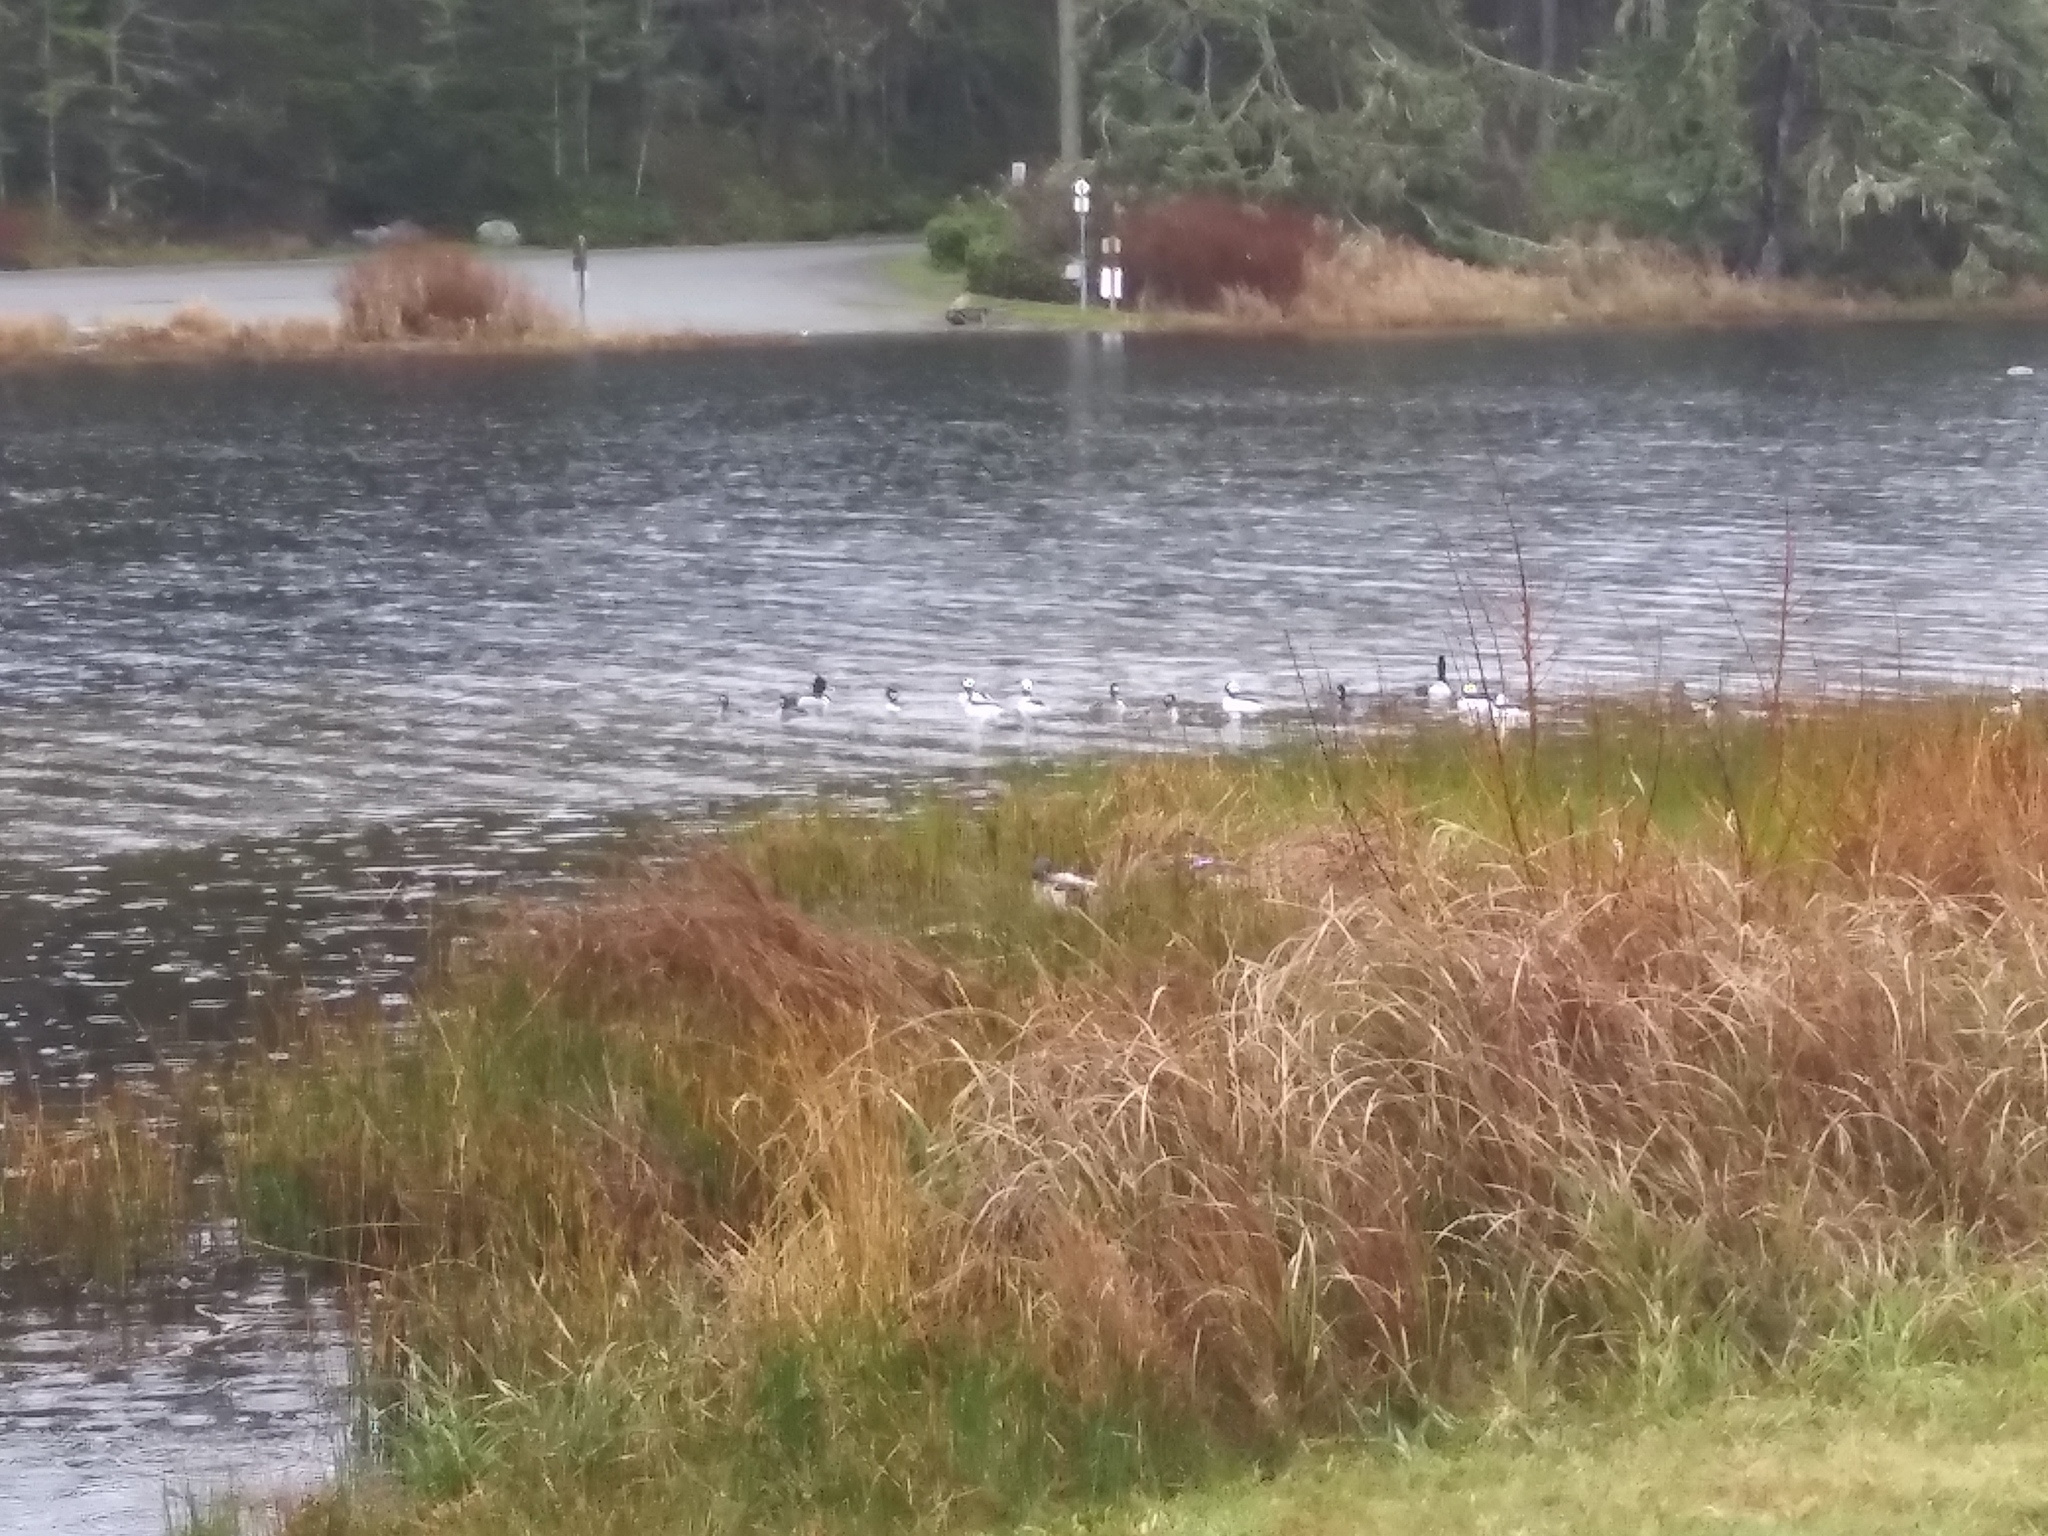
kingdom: Animalia
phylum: Chordata
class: Aves
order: Anseriformes
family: Anatidae
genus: Bucephala
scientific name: Bucephala albeola
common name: Bufflehead
